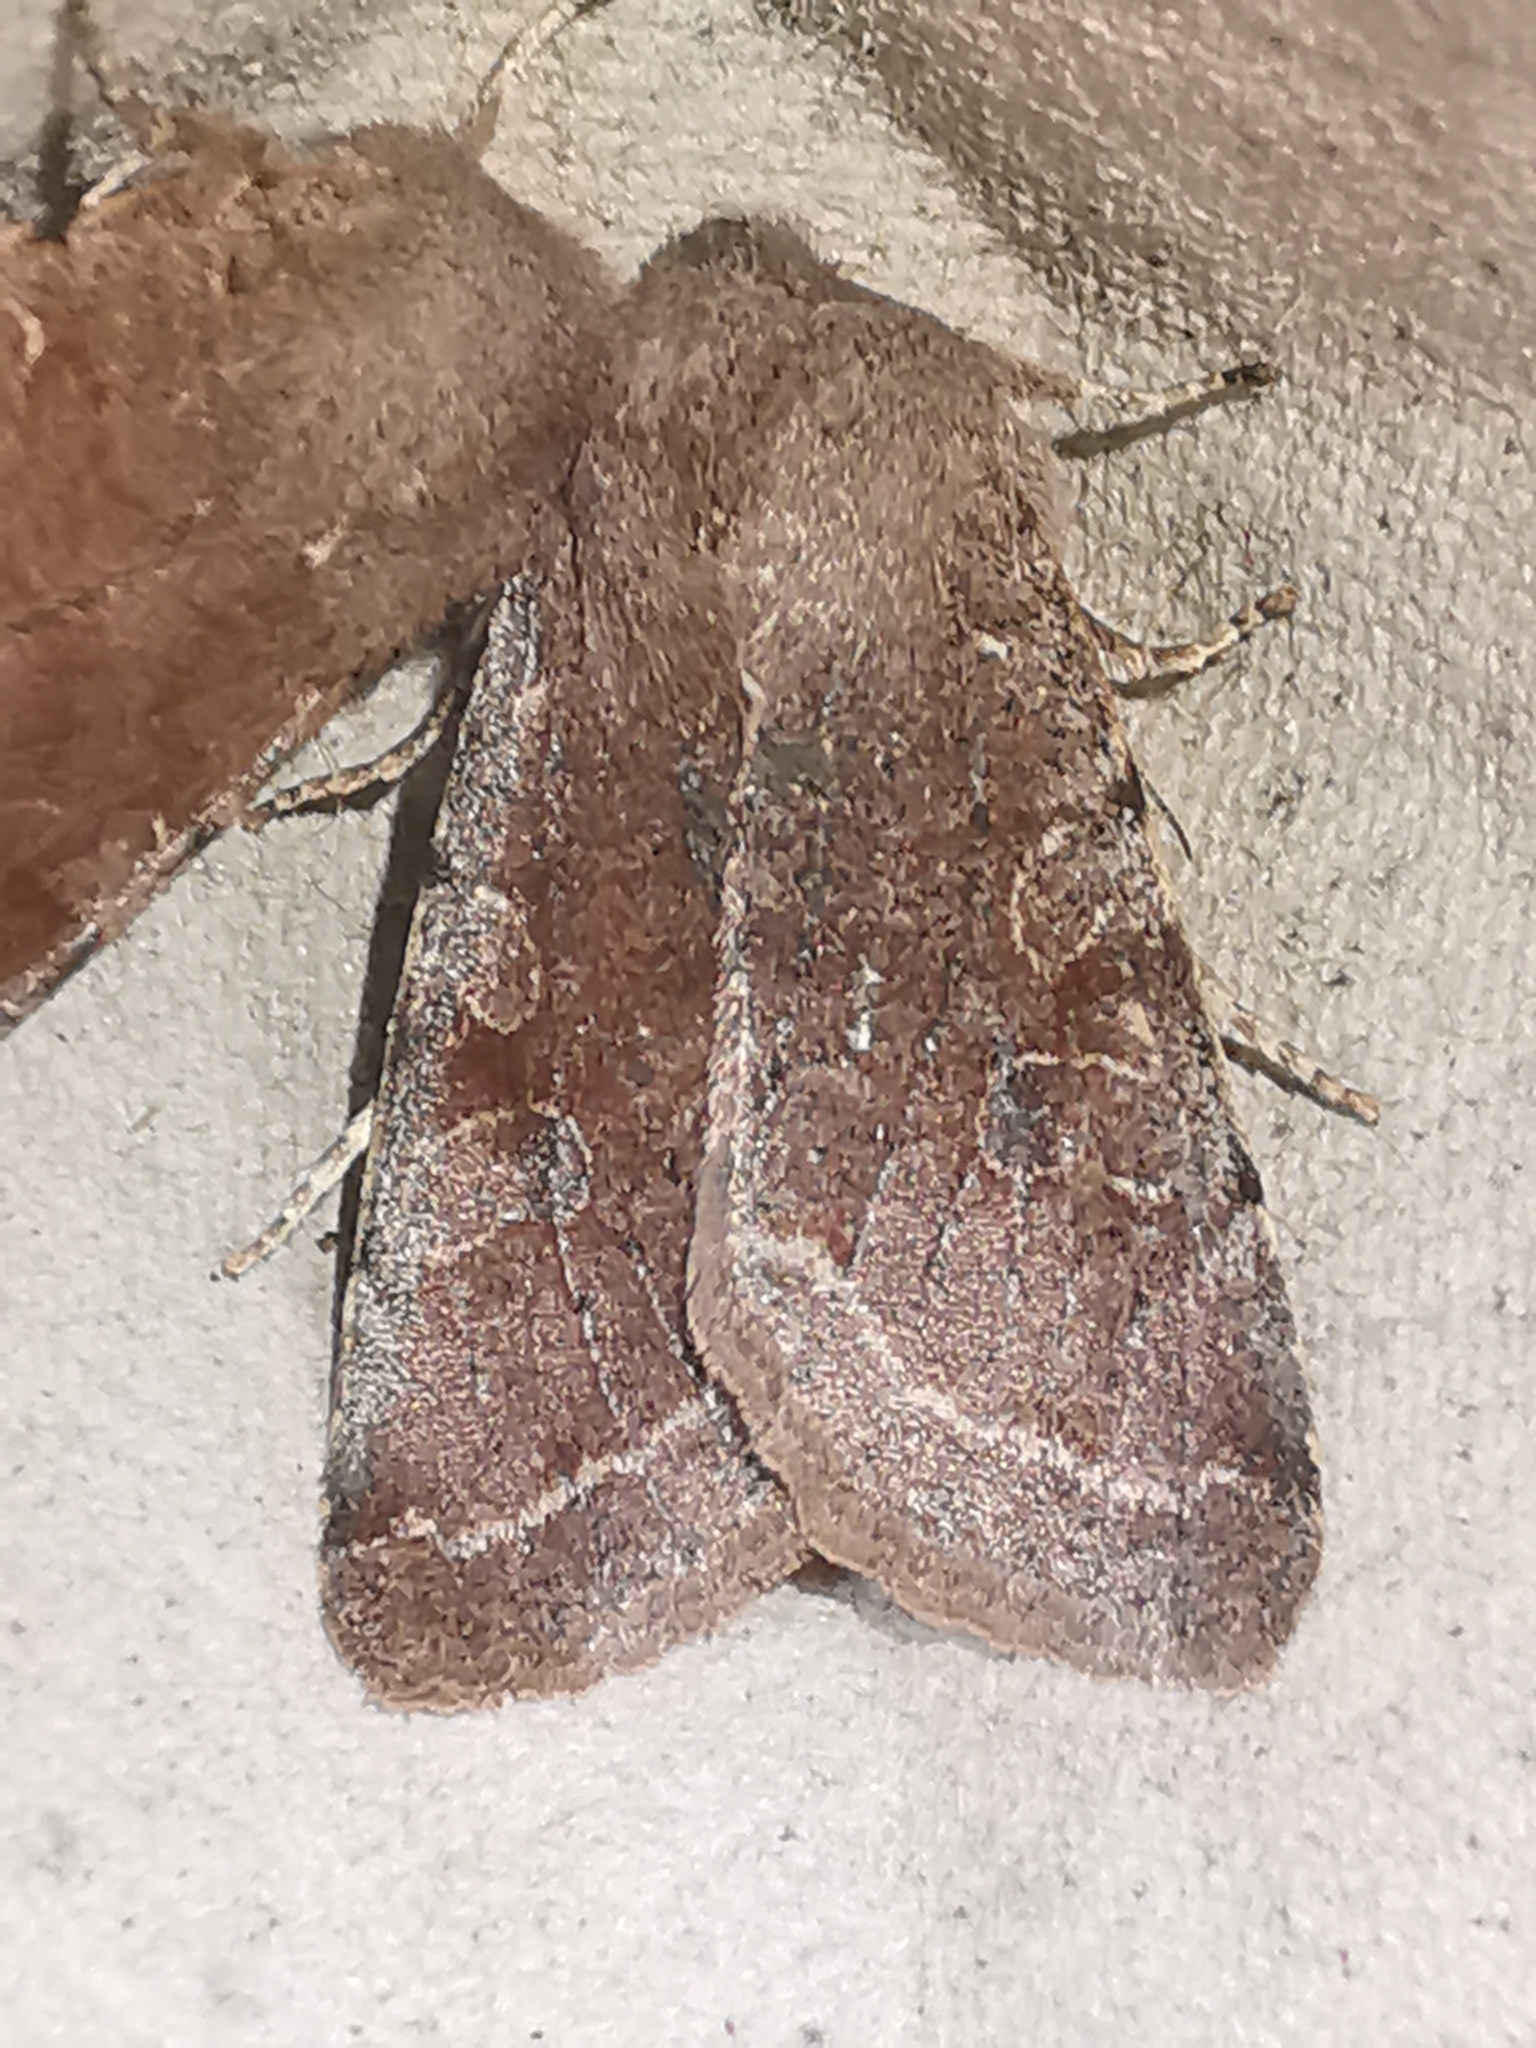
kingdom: Animalia
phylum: Arthropoda
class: Insecta
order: Lepidoptera
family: Noctuidae
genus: Orthosia
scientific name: Orthosia incerta
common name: Clouded drab
